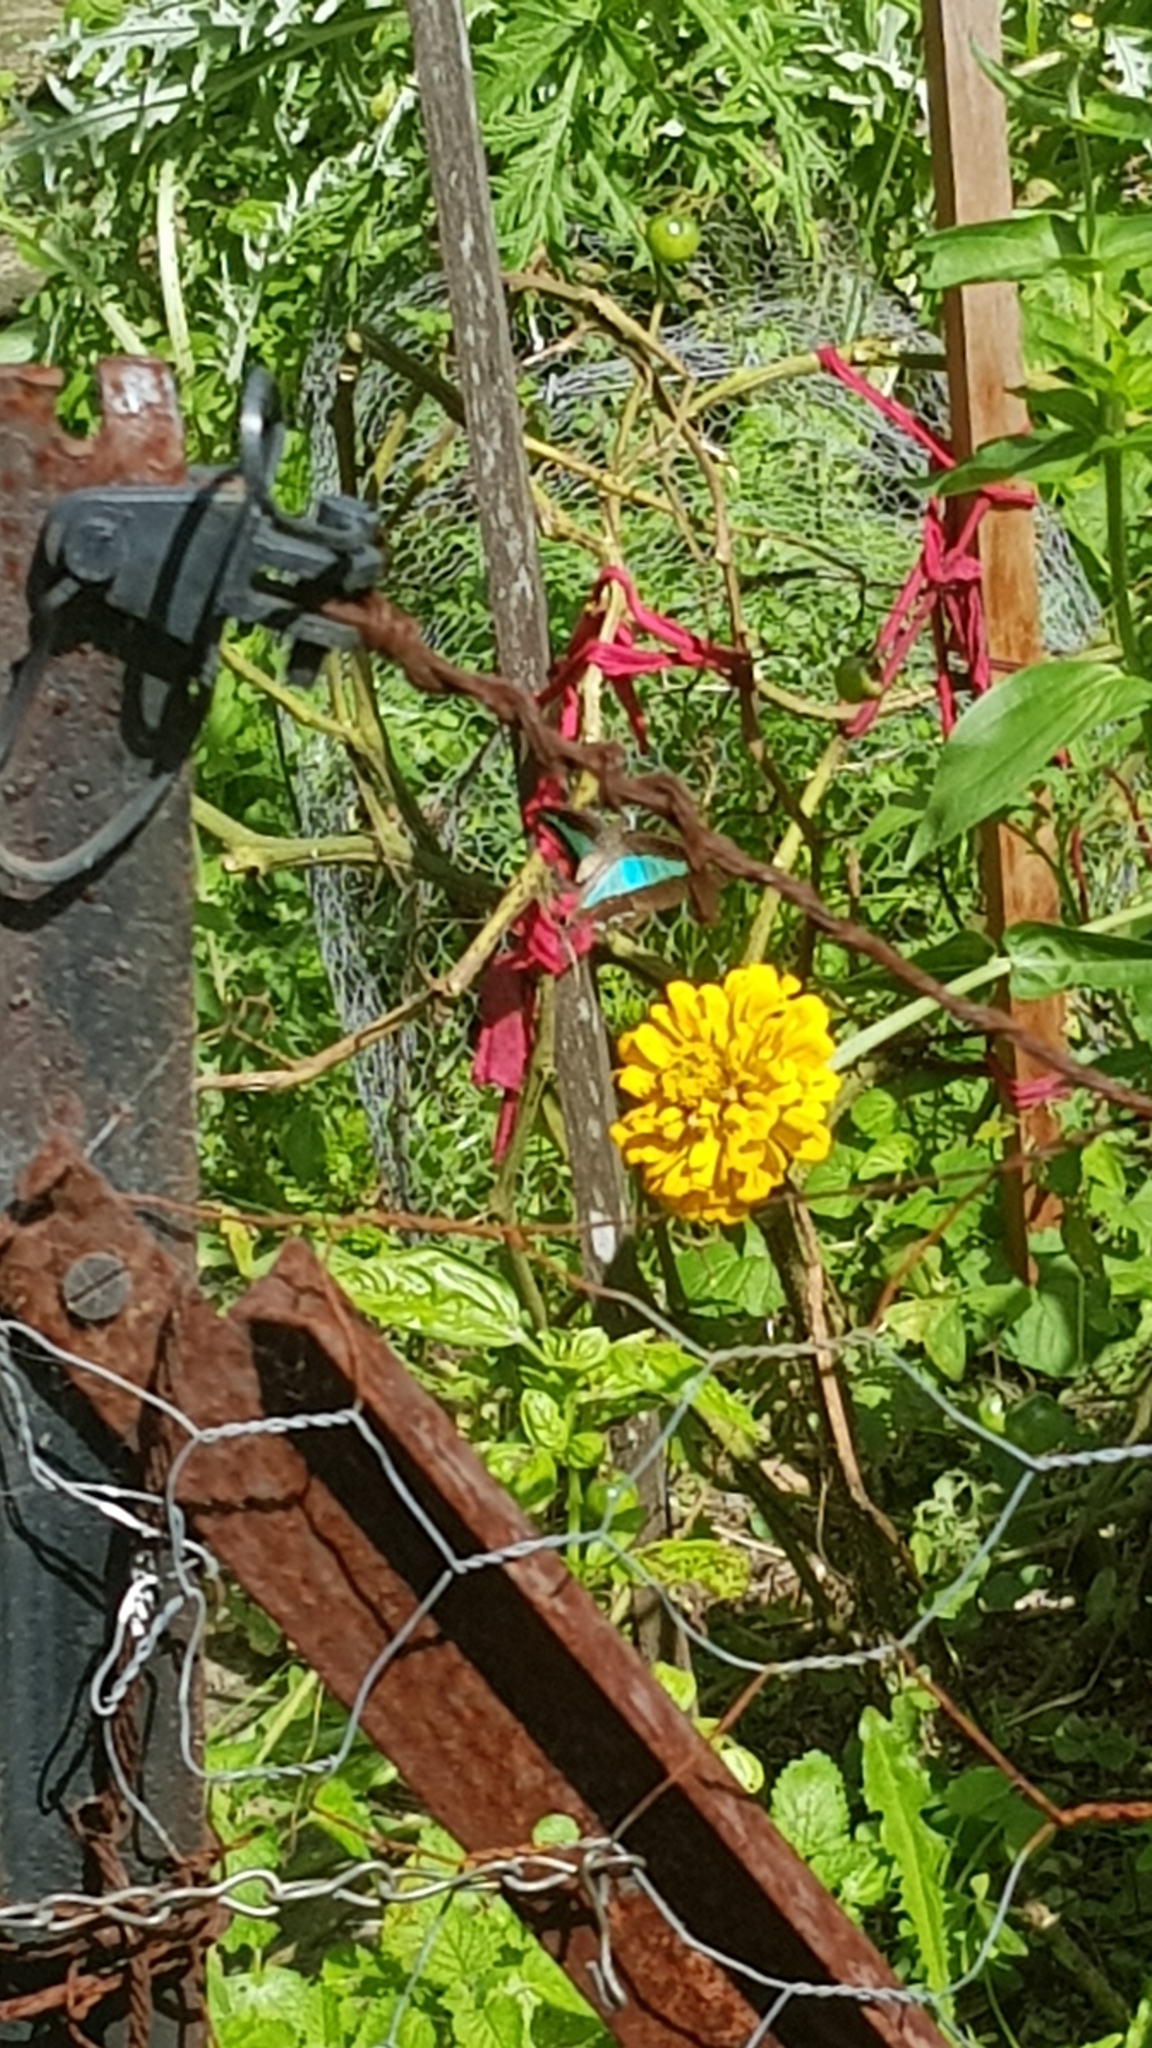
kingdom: Animalia
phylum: Arthropoda
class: Insecta
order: Lepidoptera
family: Papilionidae
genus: Graphium
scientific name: Graphium
